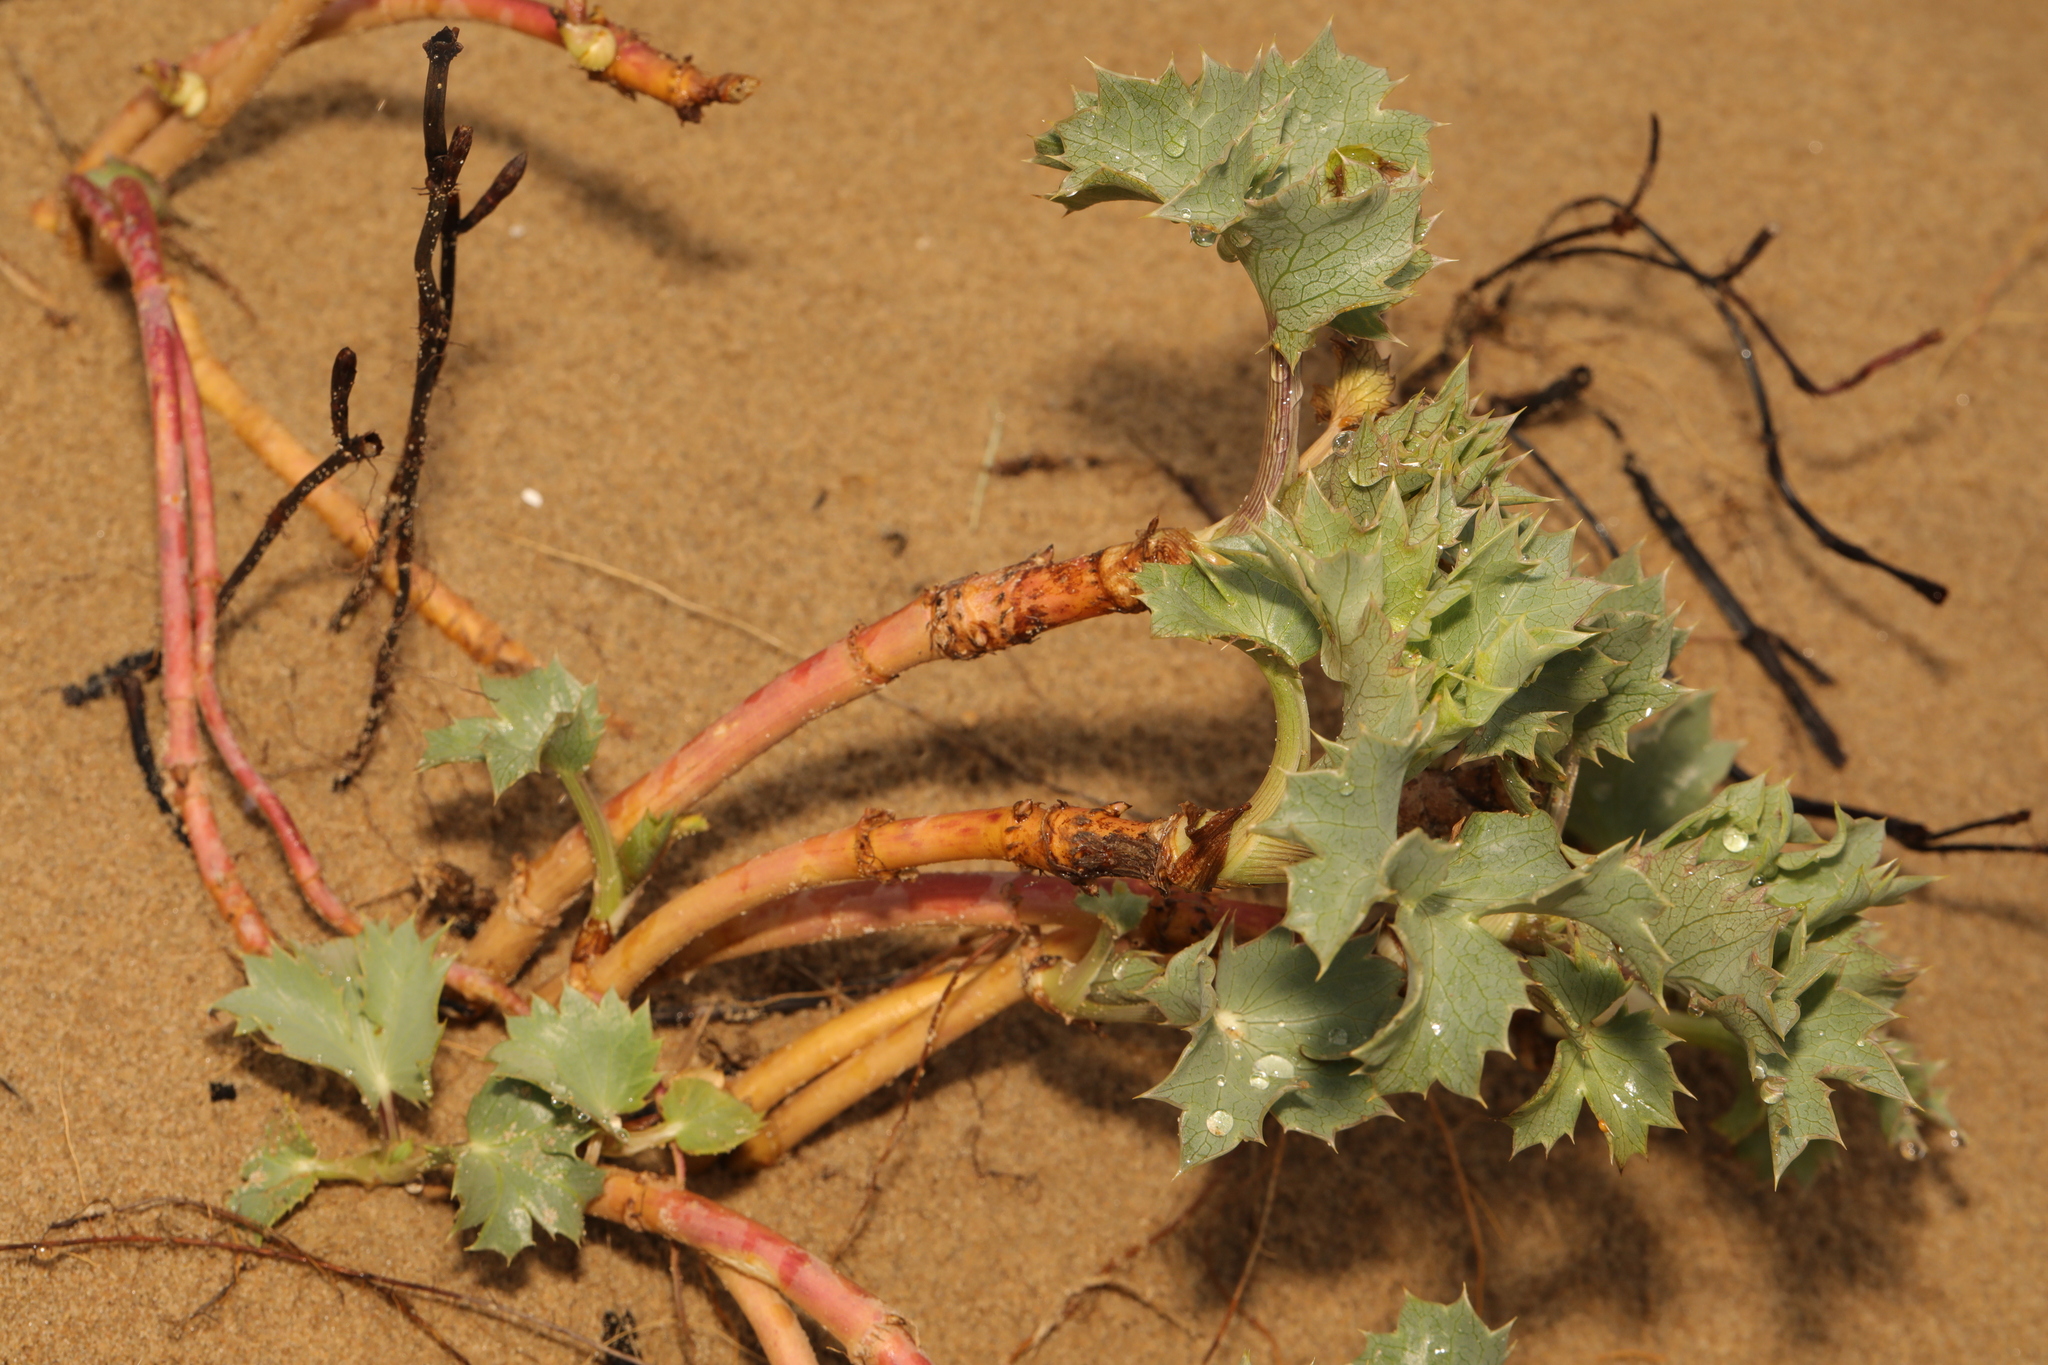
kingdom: Plantae
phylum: Tracheophyta
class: Magnoliopsida
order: Apiales
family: Apiaceae
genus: Eryngium
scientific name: Eryngium maritimum
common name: Sea-holly
